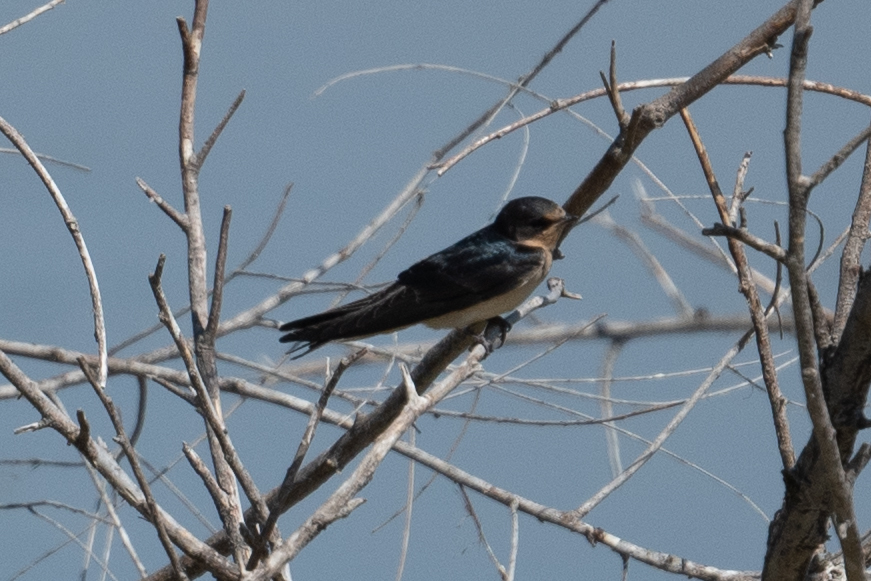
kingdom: Animalia
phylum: Chordata
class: Aves
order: Passeriformes
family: Hirundinidae
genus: Hirundo
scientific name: Hirundo rustica
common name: Barn swallow
